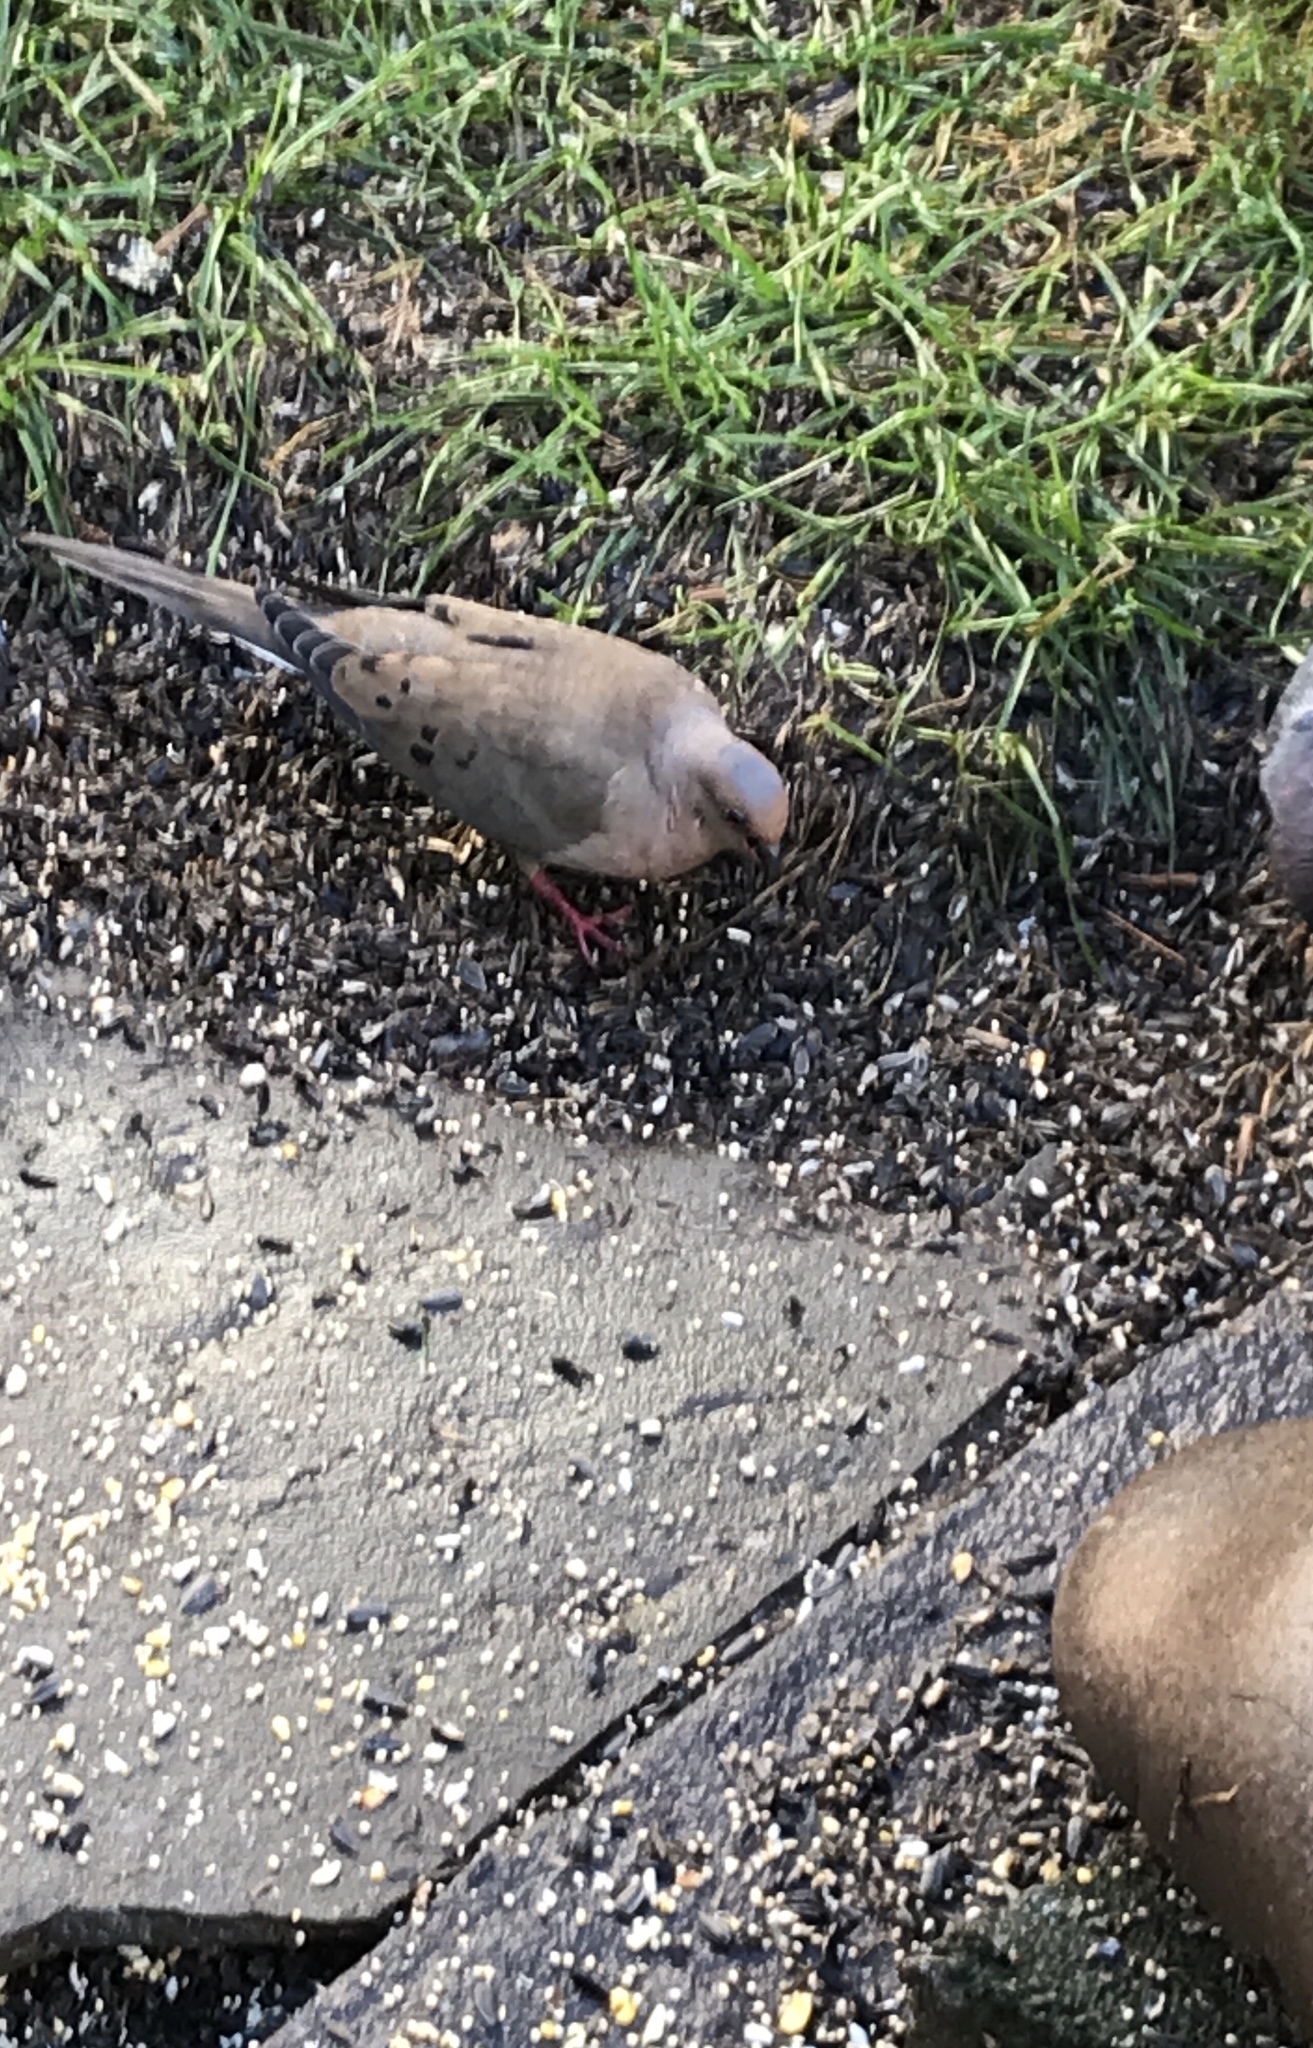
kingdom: Animalia
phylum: Chordata
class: Aves
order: Columbiformes
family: Columbidae
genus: Zenaida
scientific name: Zenaida macroura
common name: Mourning dove
